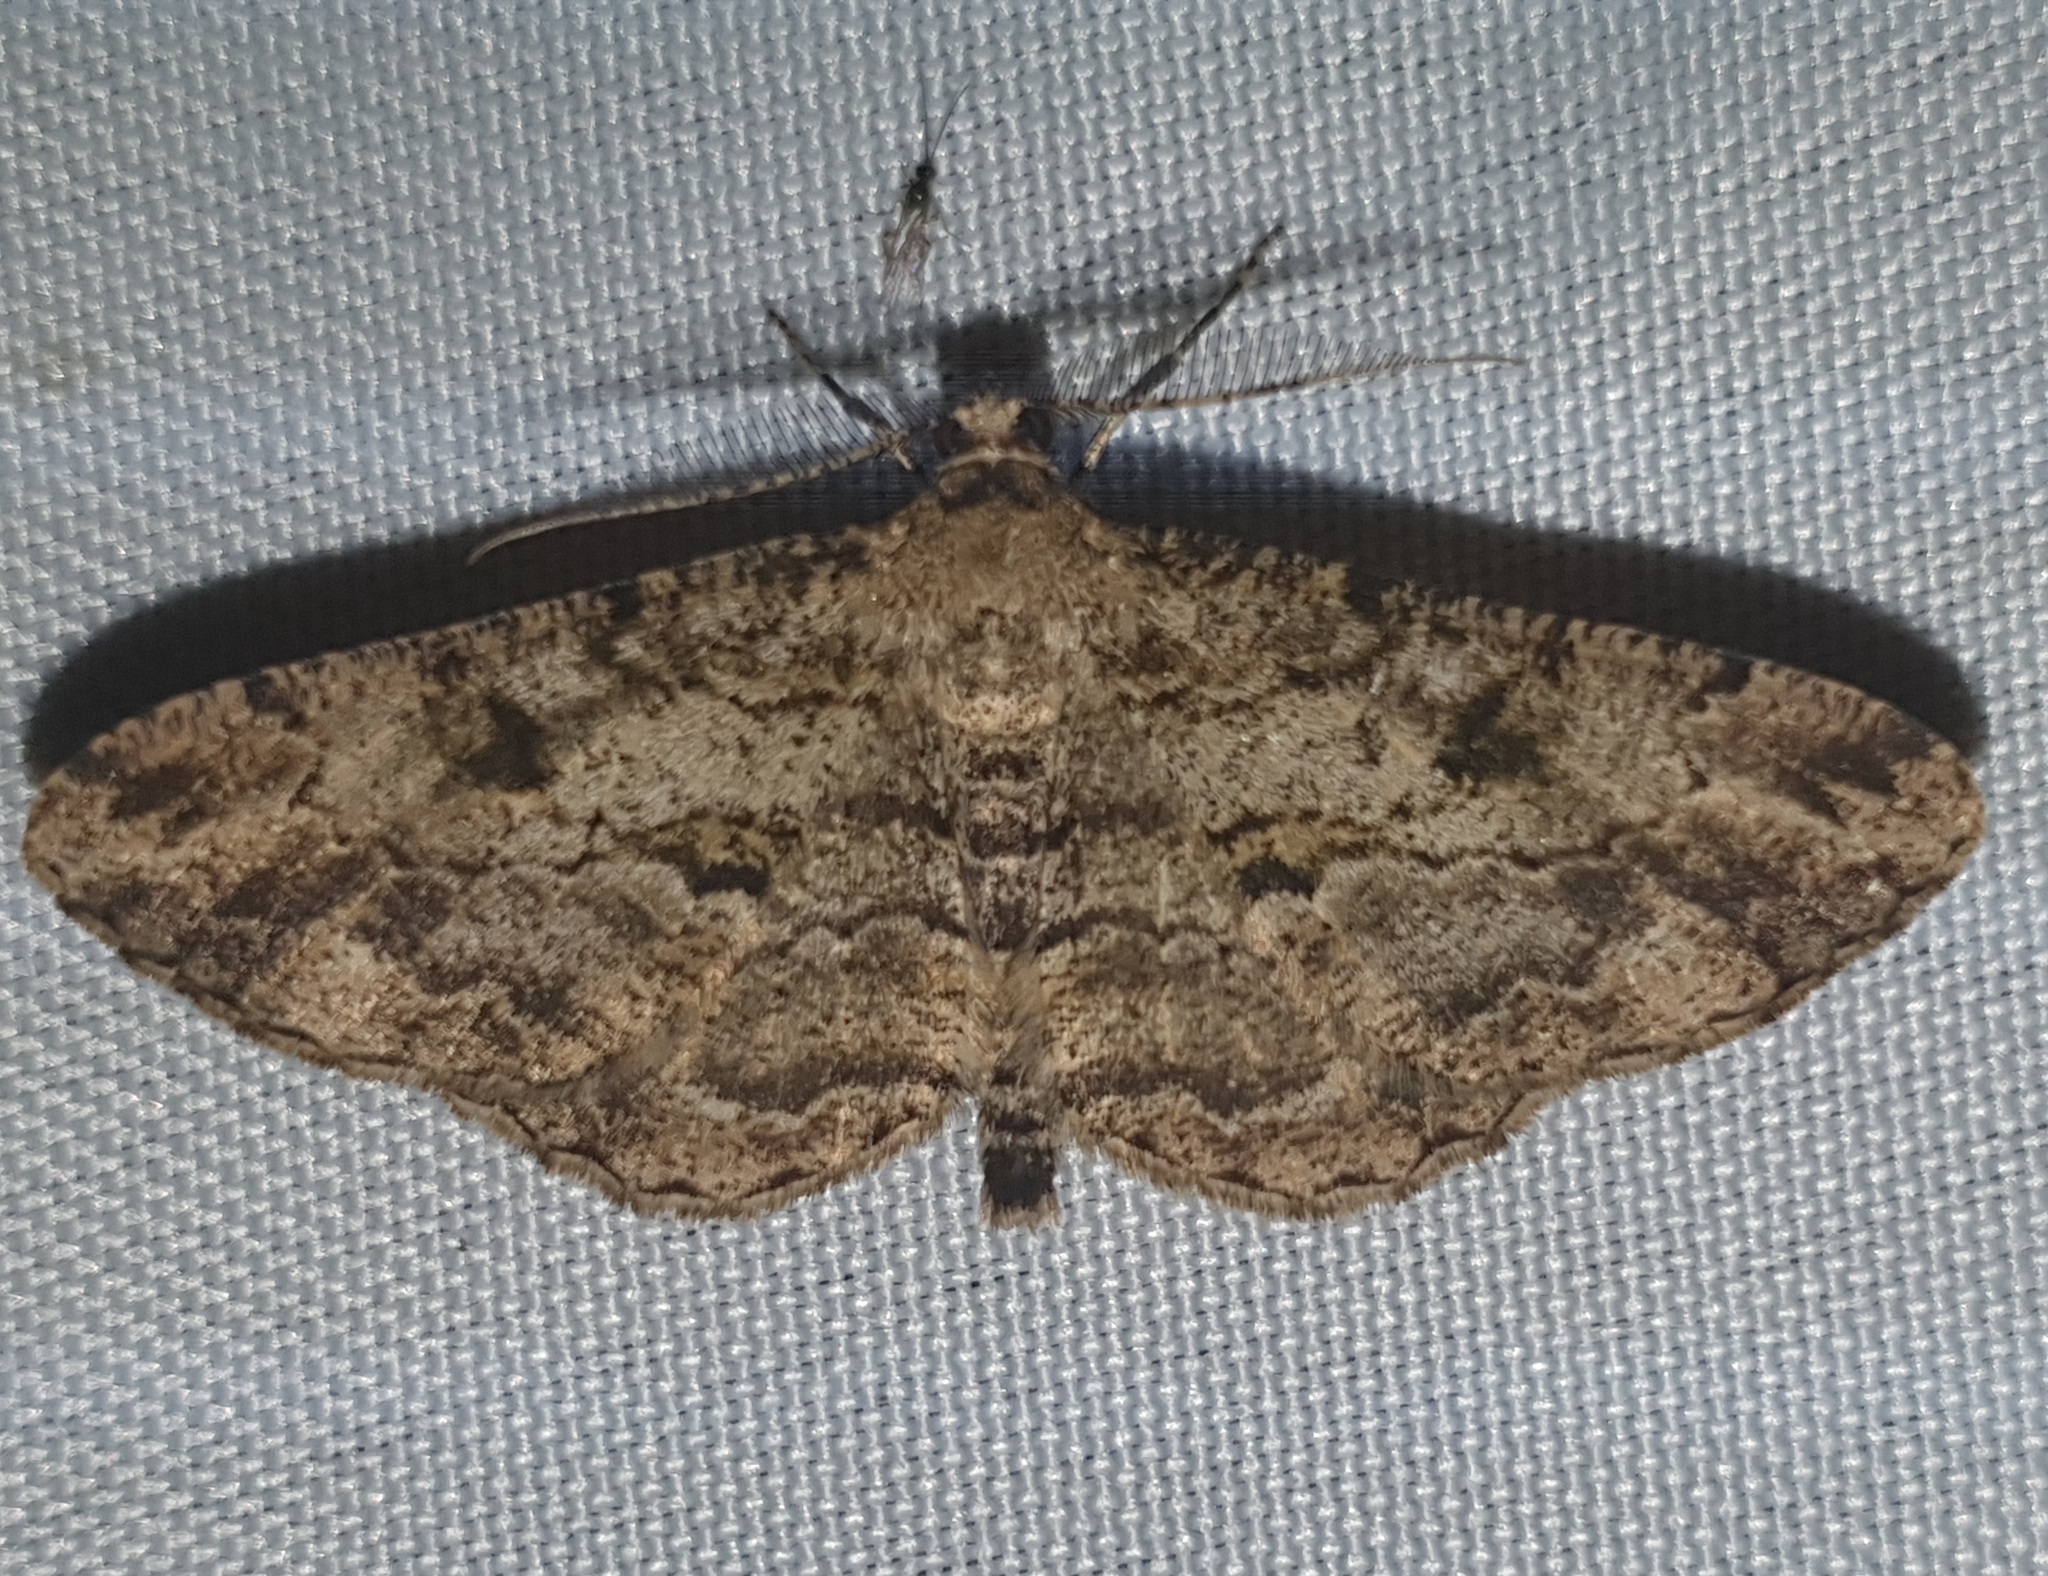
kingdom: Animalia
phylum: Arthropoda
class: Insecta
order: Lepidoptera
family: Geometridae
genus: Peribatodes
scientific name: Peribatodes rhomboidaria
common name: Willow beauty
